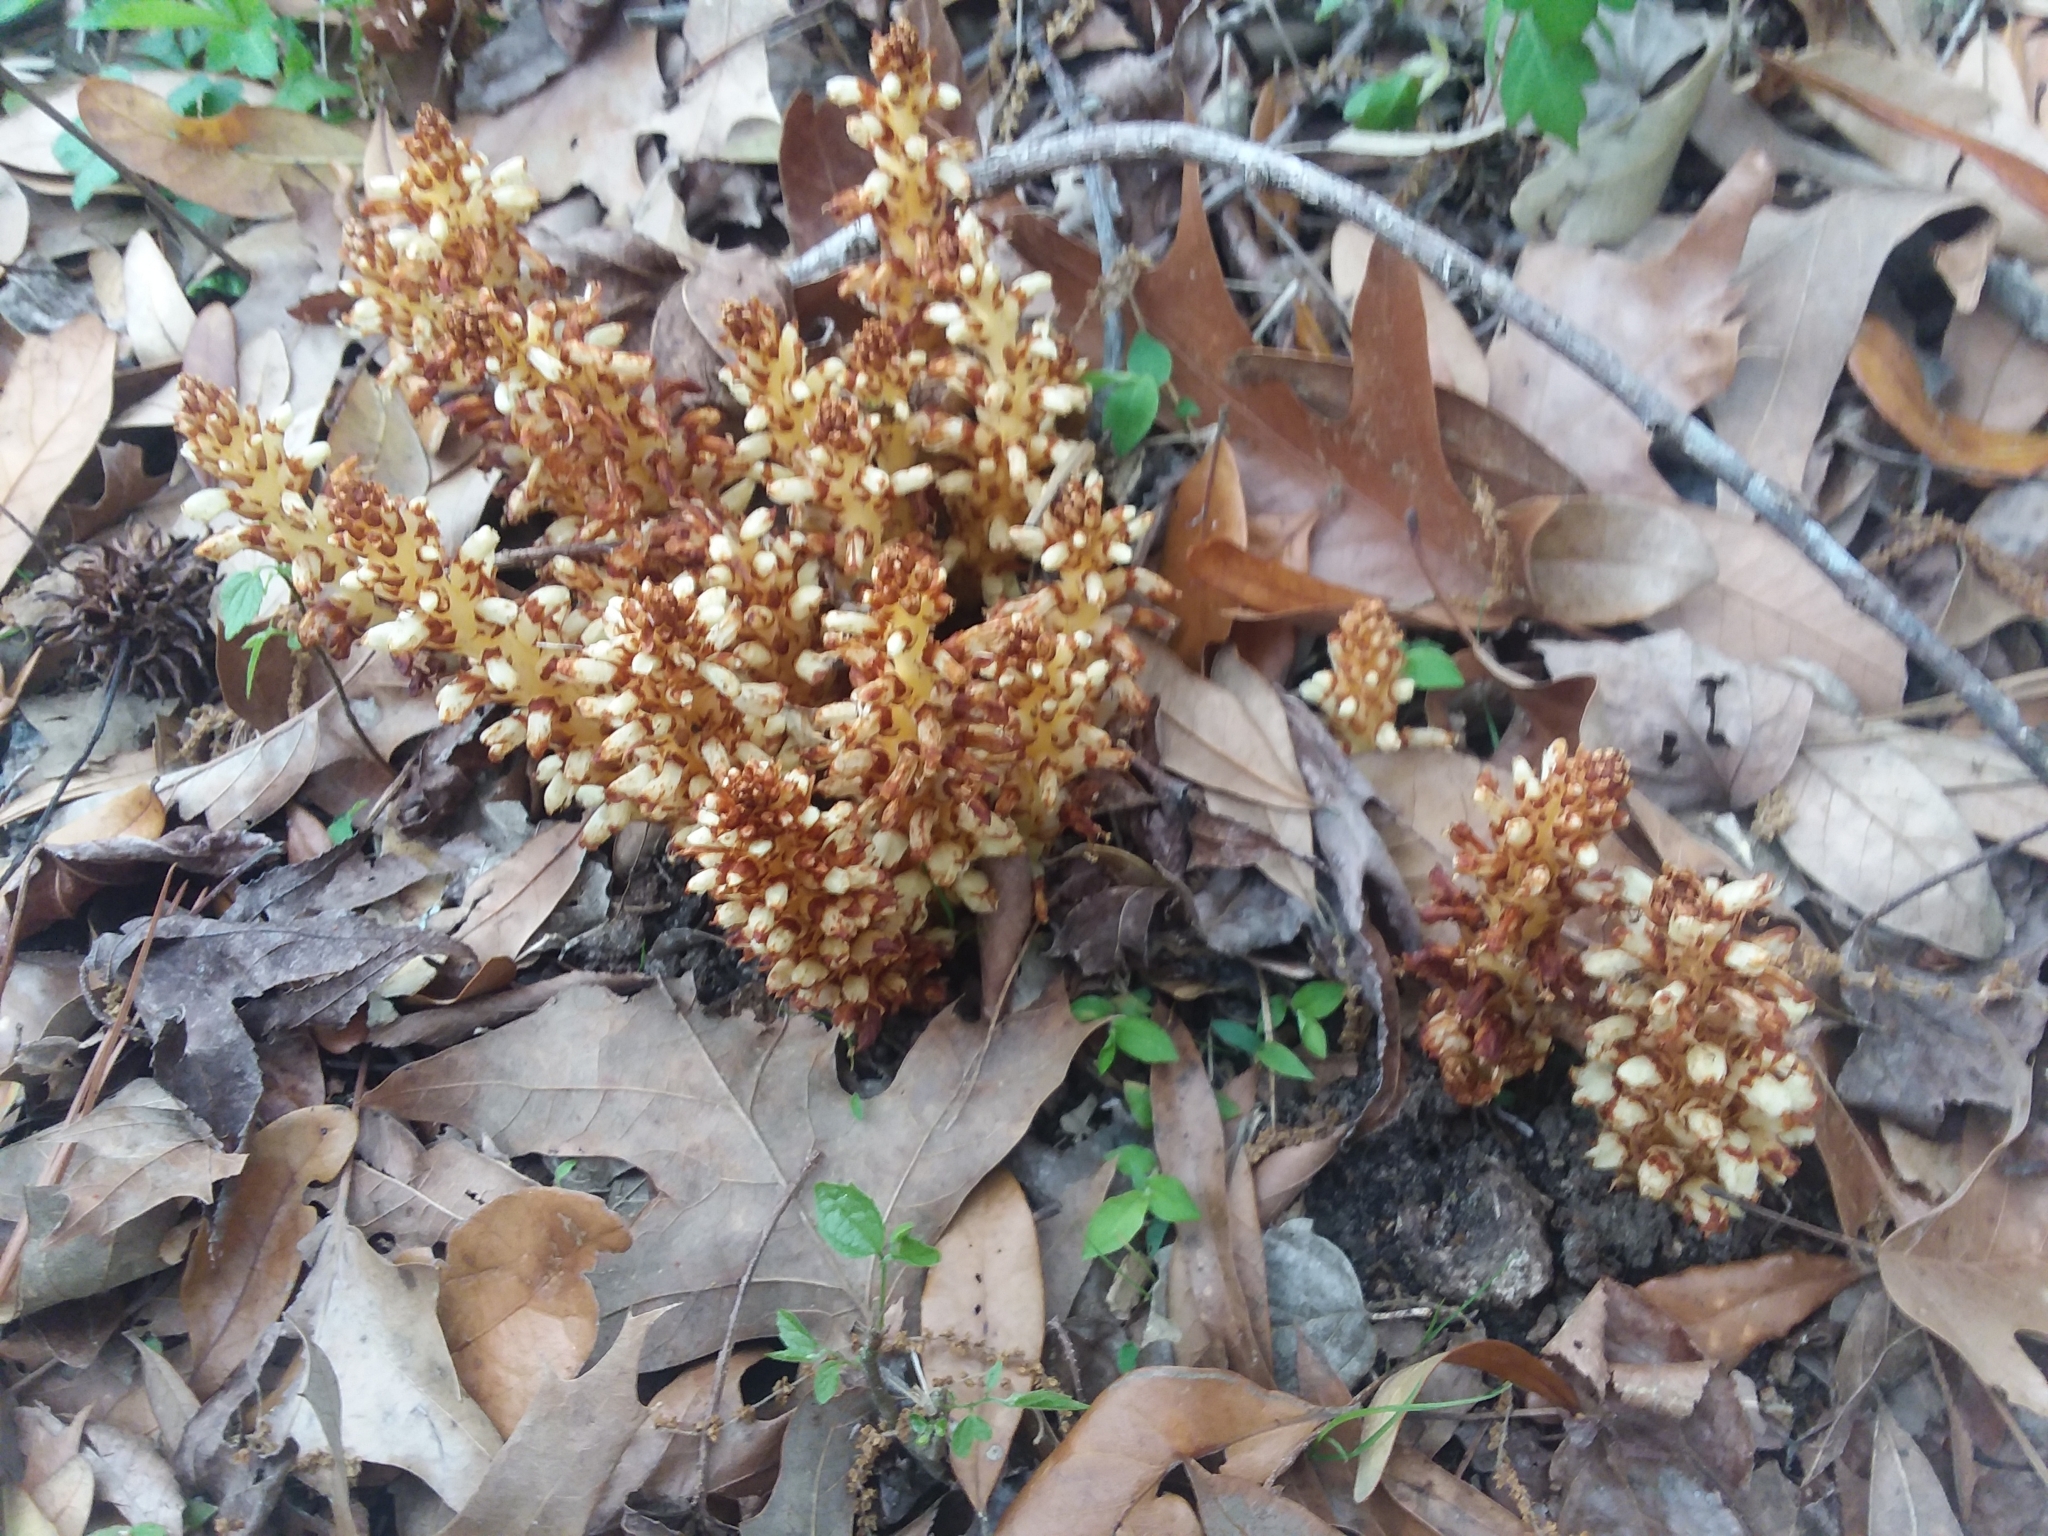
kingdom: Plantae
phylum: Tracheophyta
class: Magnoliopsida
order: Lamiales
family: Orobanchaceae
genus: Conopholis
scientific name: Conopholis americana
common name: American cancer-root
